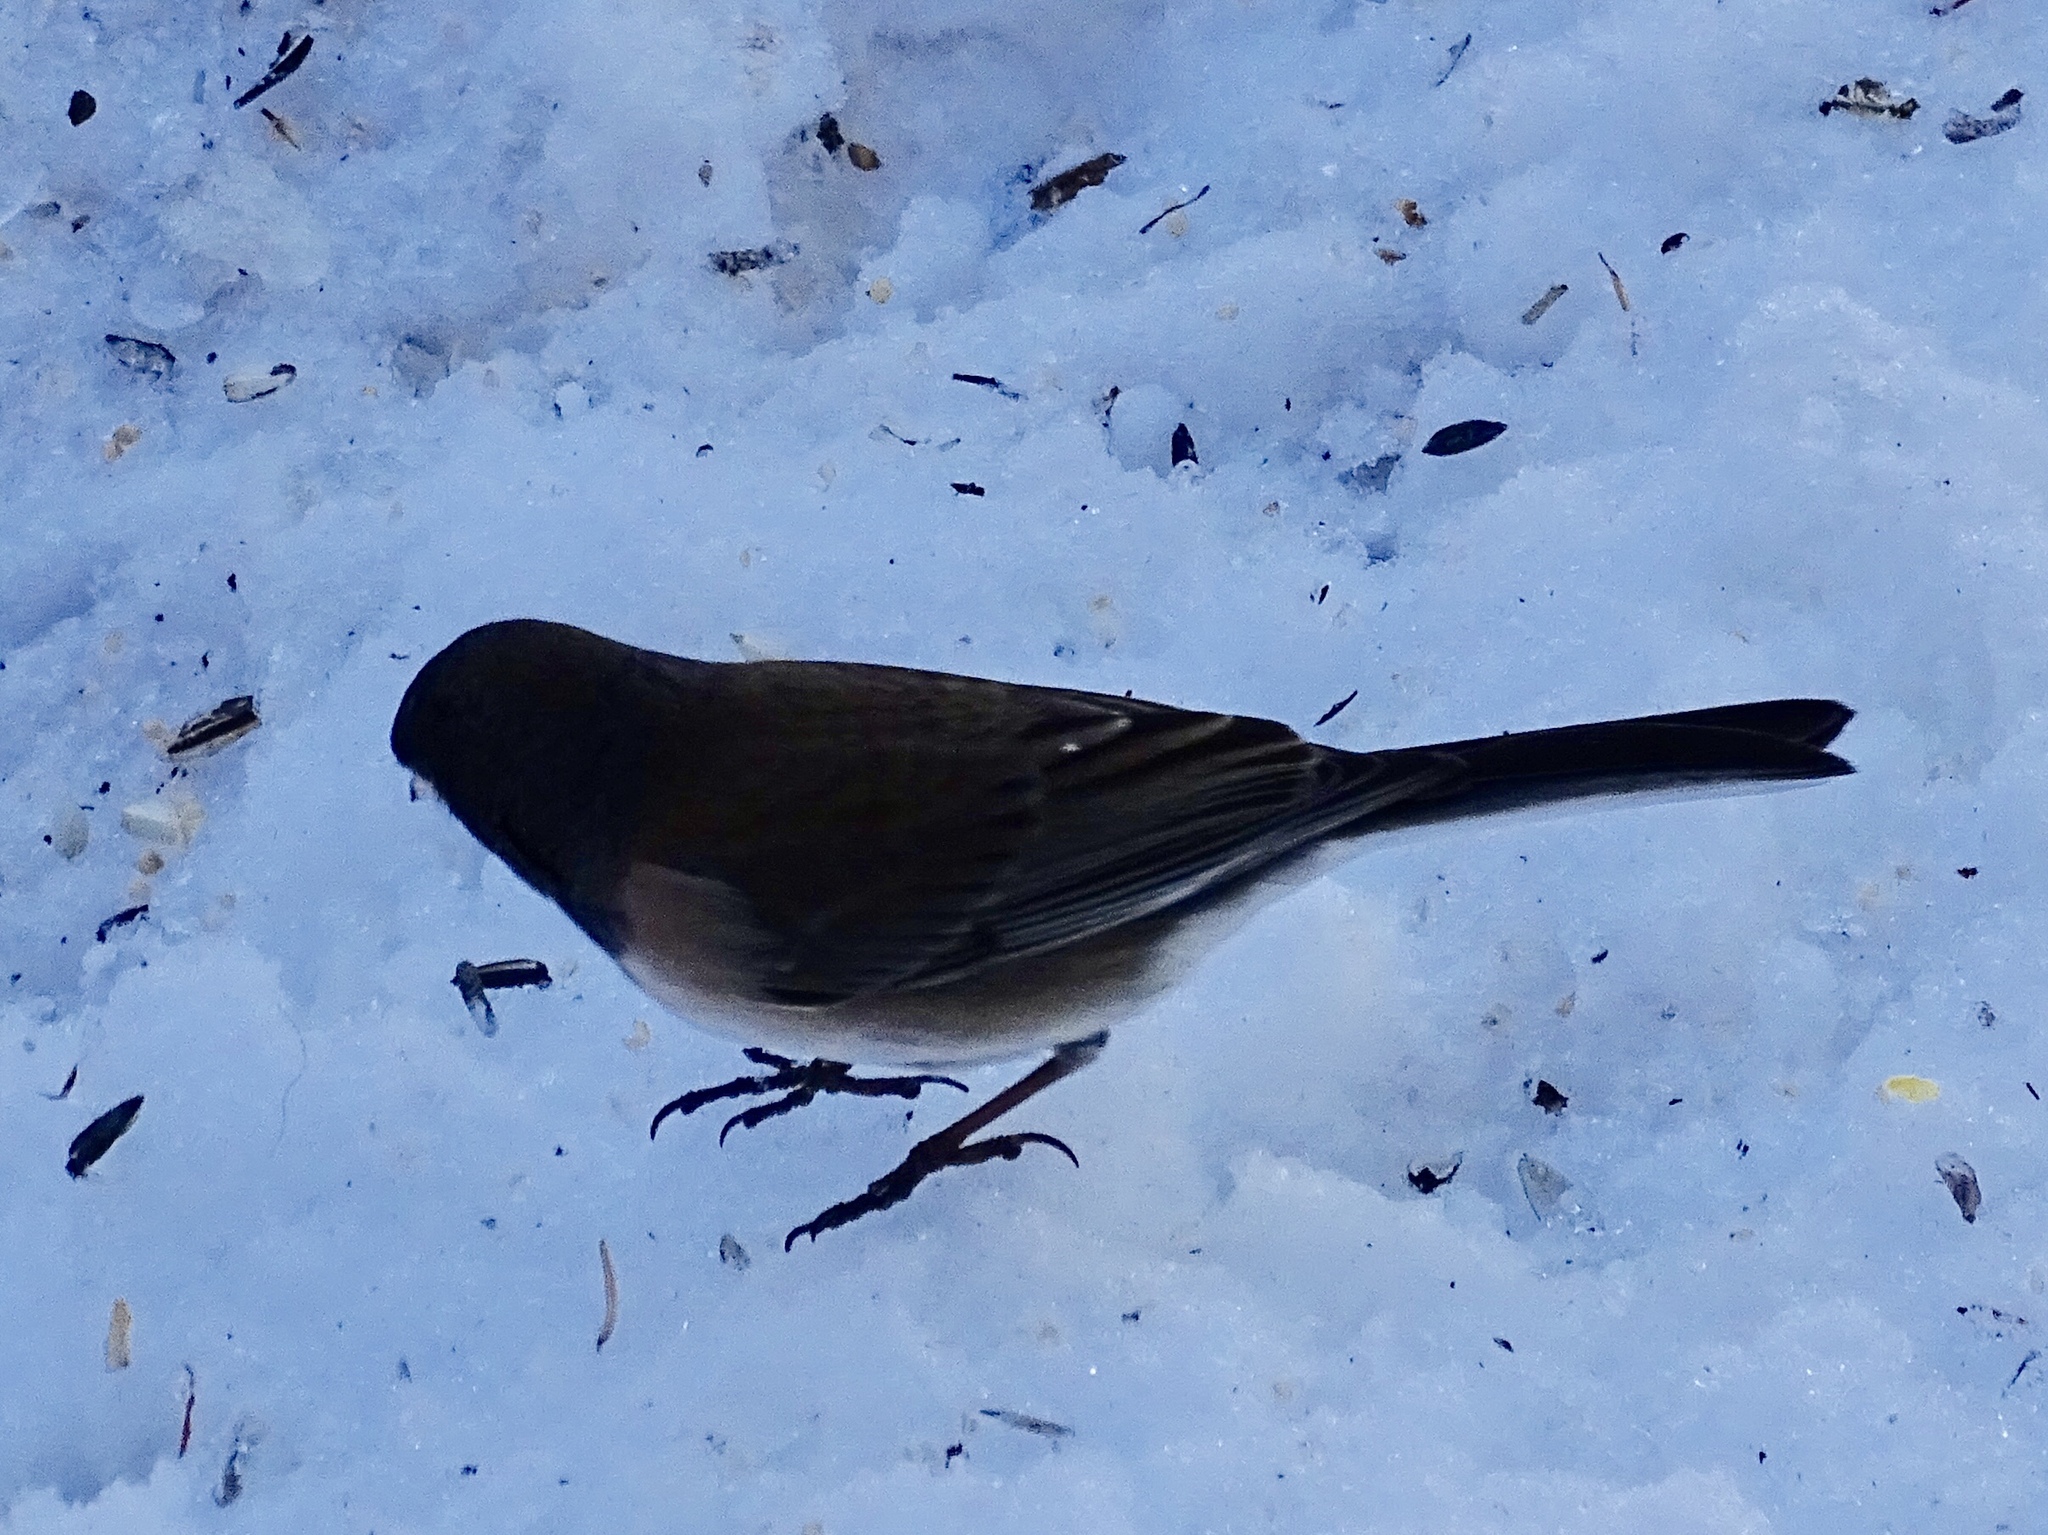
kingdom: Animalia
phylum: Chordata
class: Aves
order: Passeriformes
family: Passerellidae
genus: Junco
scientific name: Junco hyemalis
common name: Dark-eyed junco
